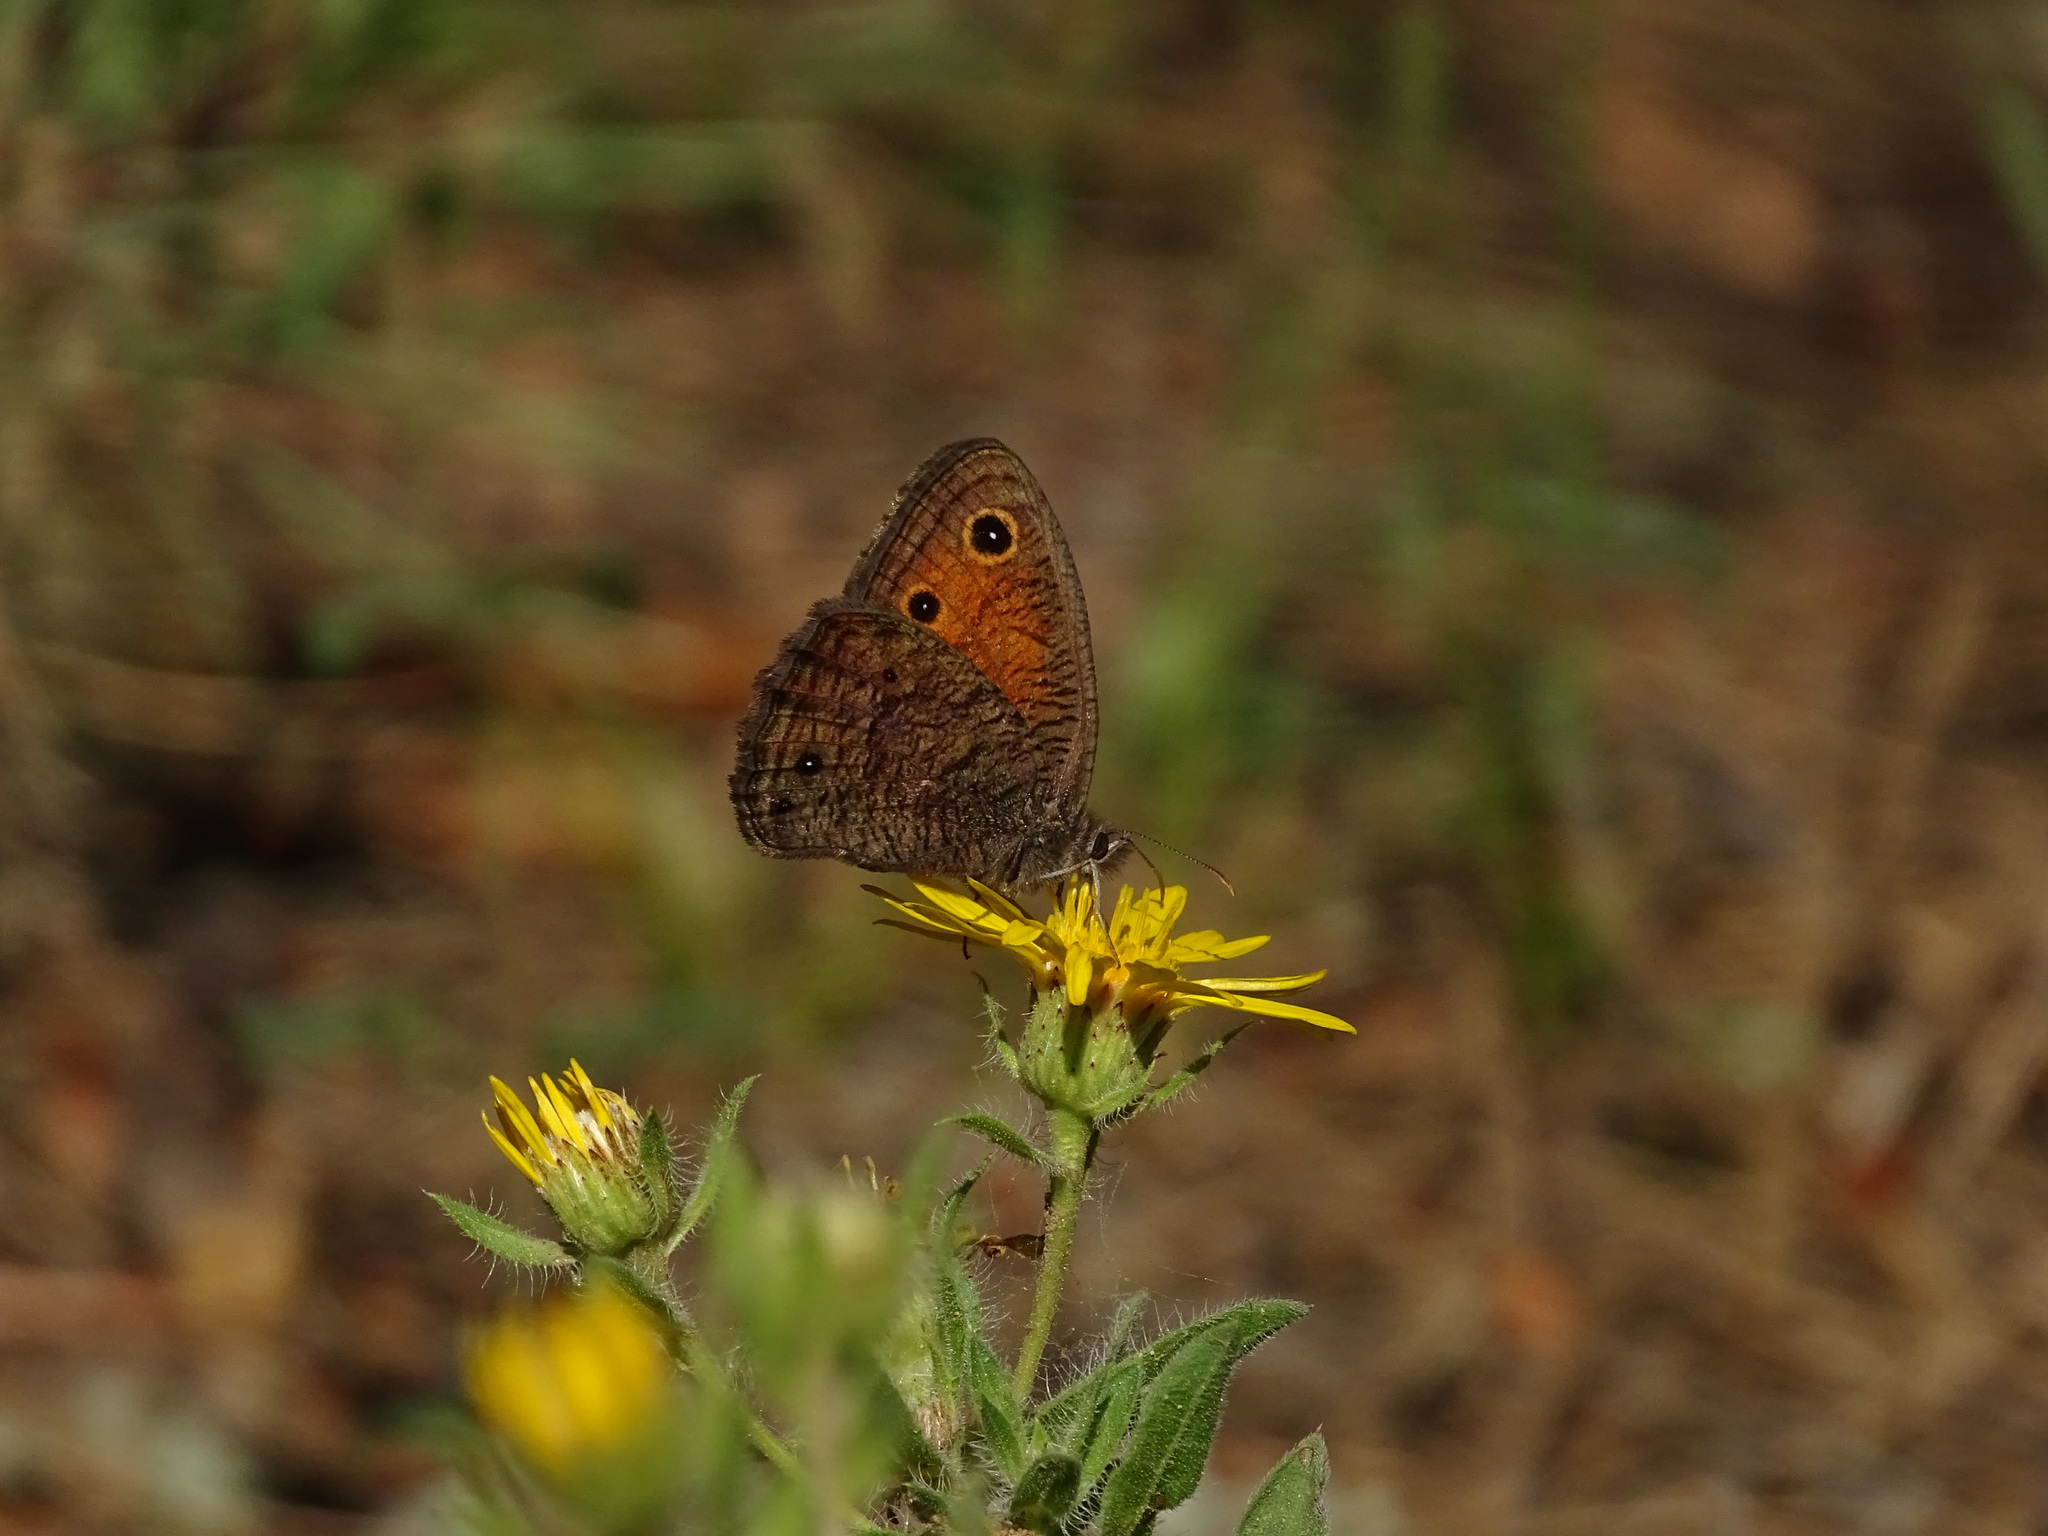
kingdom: Animalia
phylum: Arthropoda
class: Insecta
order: Lepidoptera
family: Nymphalidae
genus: Cercyonis
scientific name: Cercyonis meadi
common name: Mead's wood-nymph
